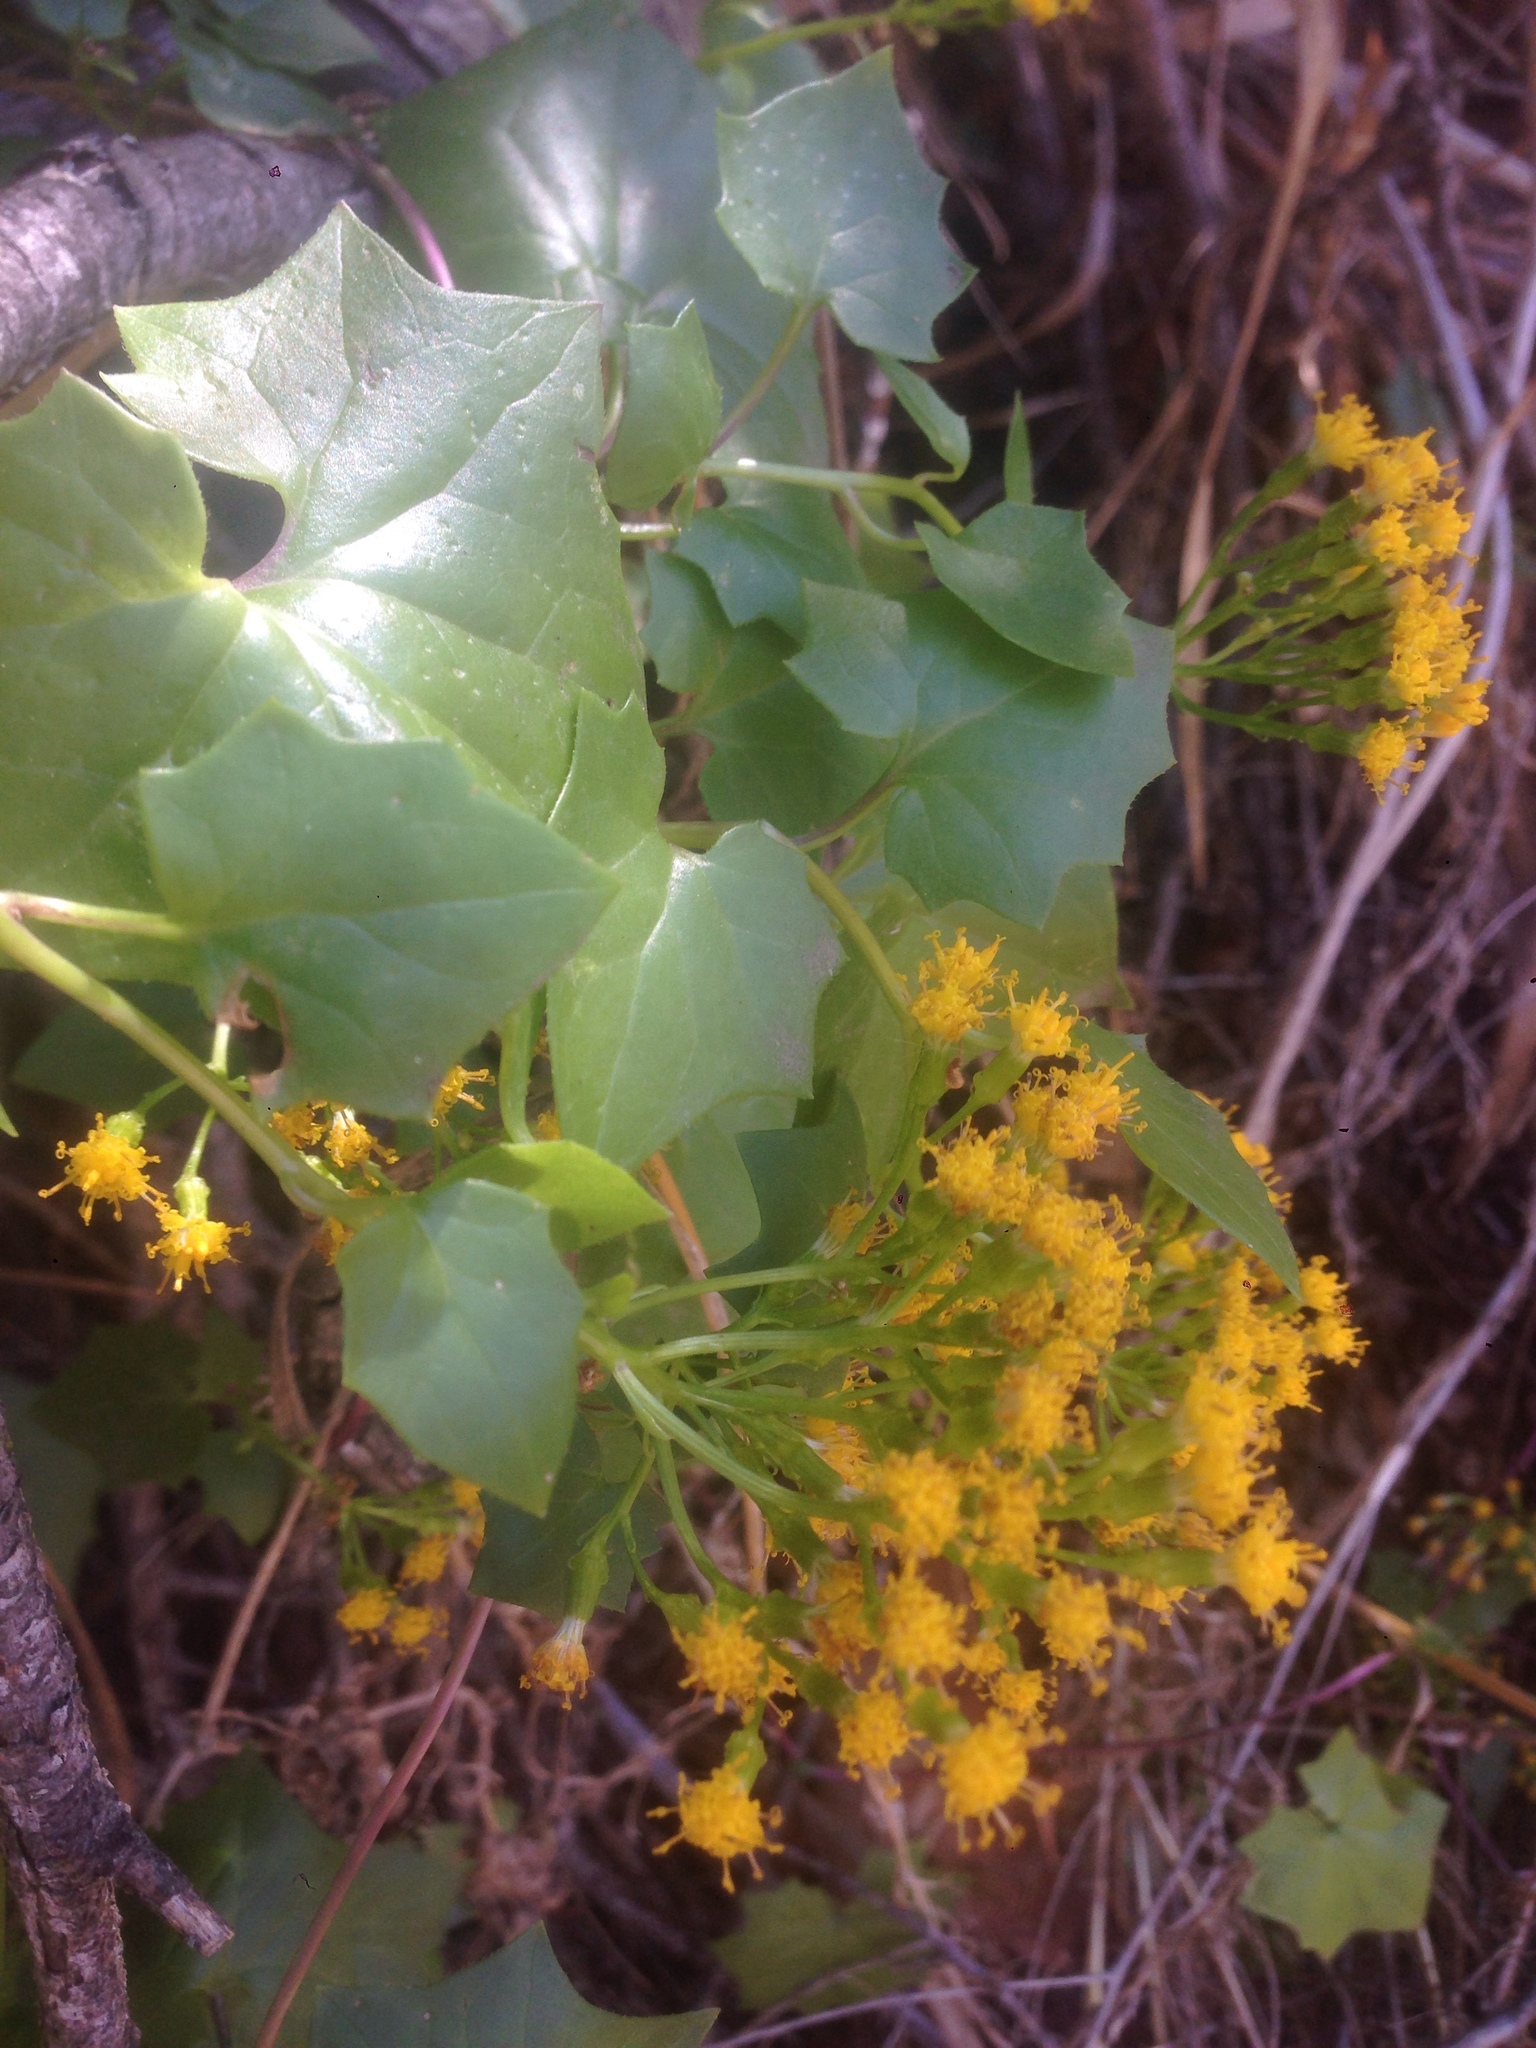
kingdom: Plantae
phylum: Tracheophyta
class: Magnoliopsida
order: Asterales
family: Asteraceae
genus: Delairea
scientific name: Delairea odorata
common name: Cape-ivy
